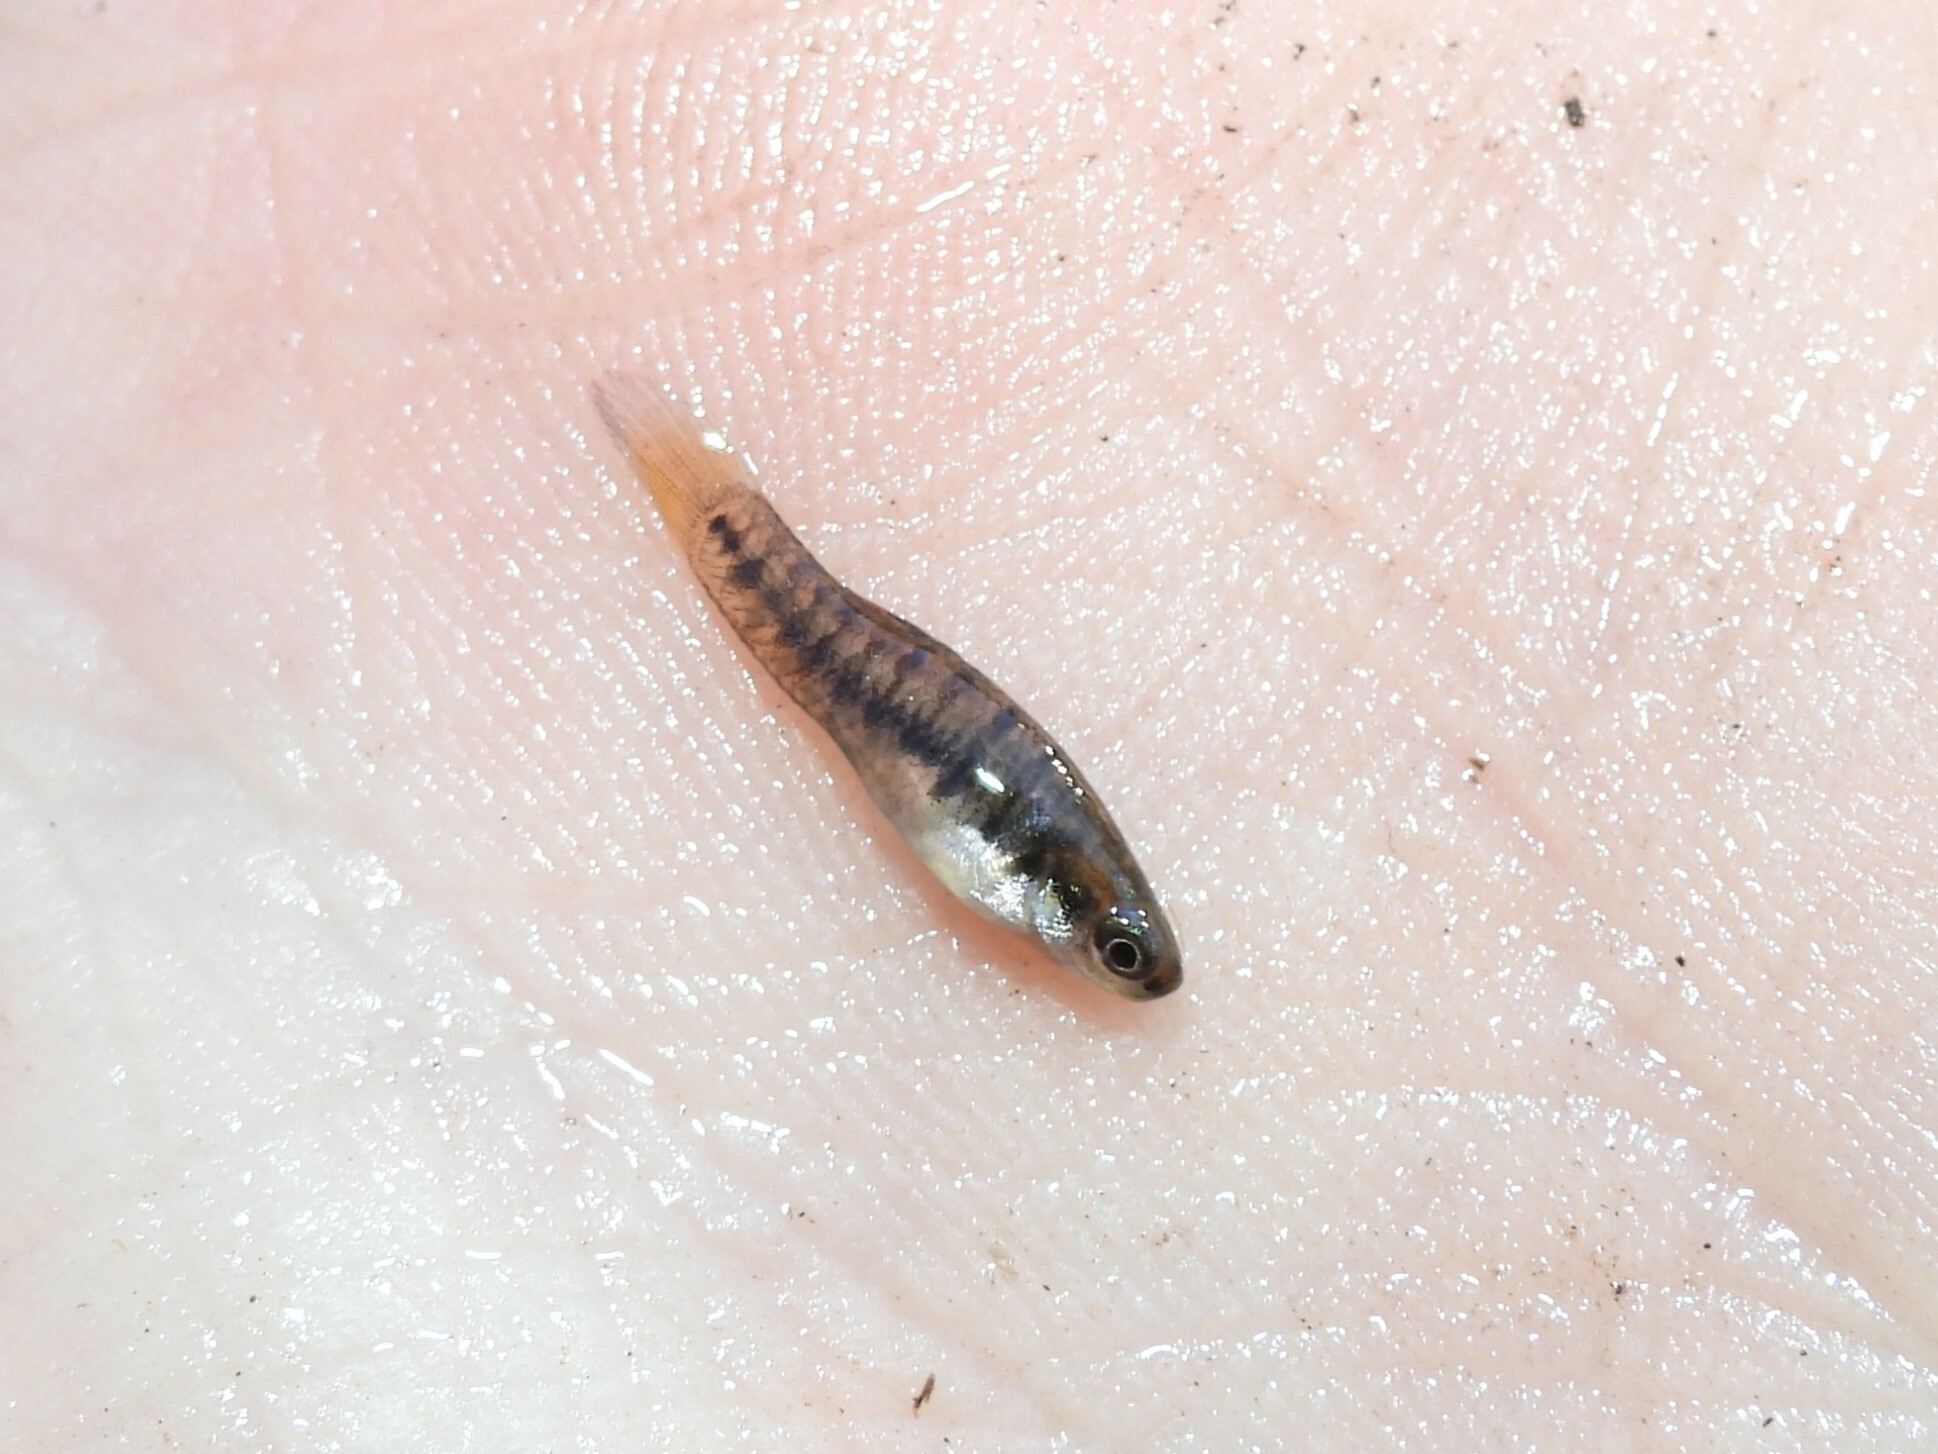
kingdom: Animalia
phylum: Chordata
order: Cyprinodontiformes
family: Poeciliidae
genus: Heterandria
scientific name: Heterandria formosa
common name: Least killifish
